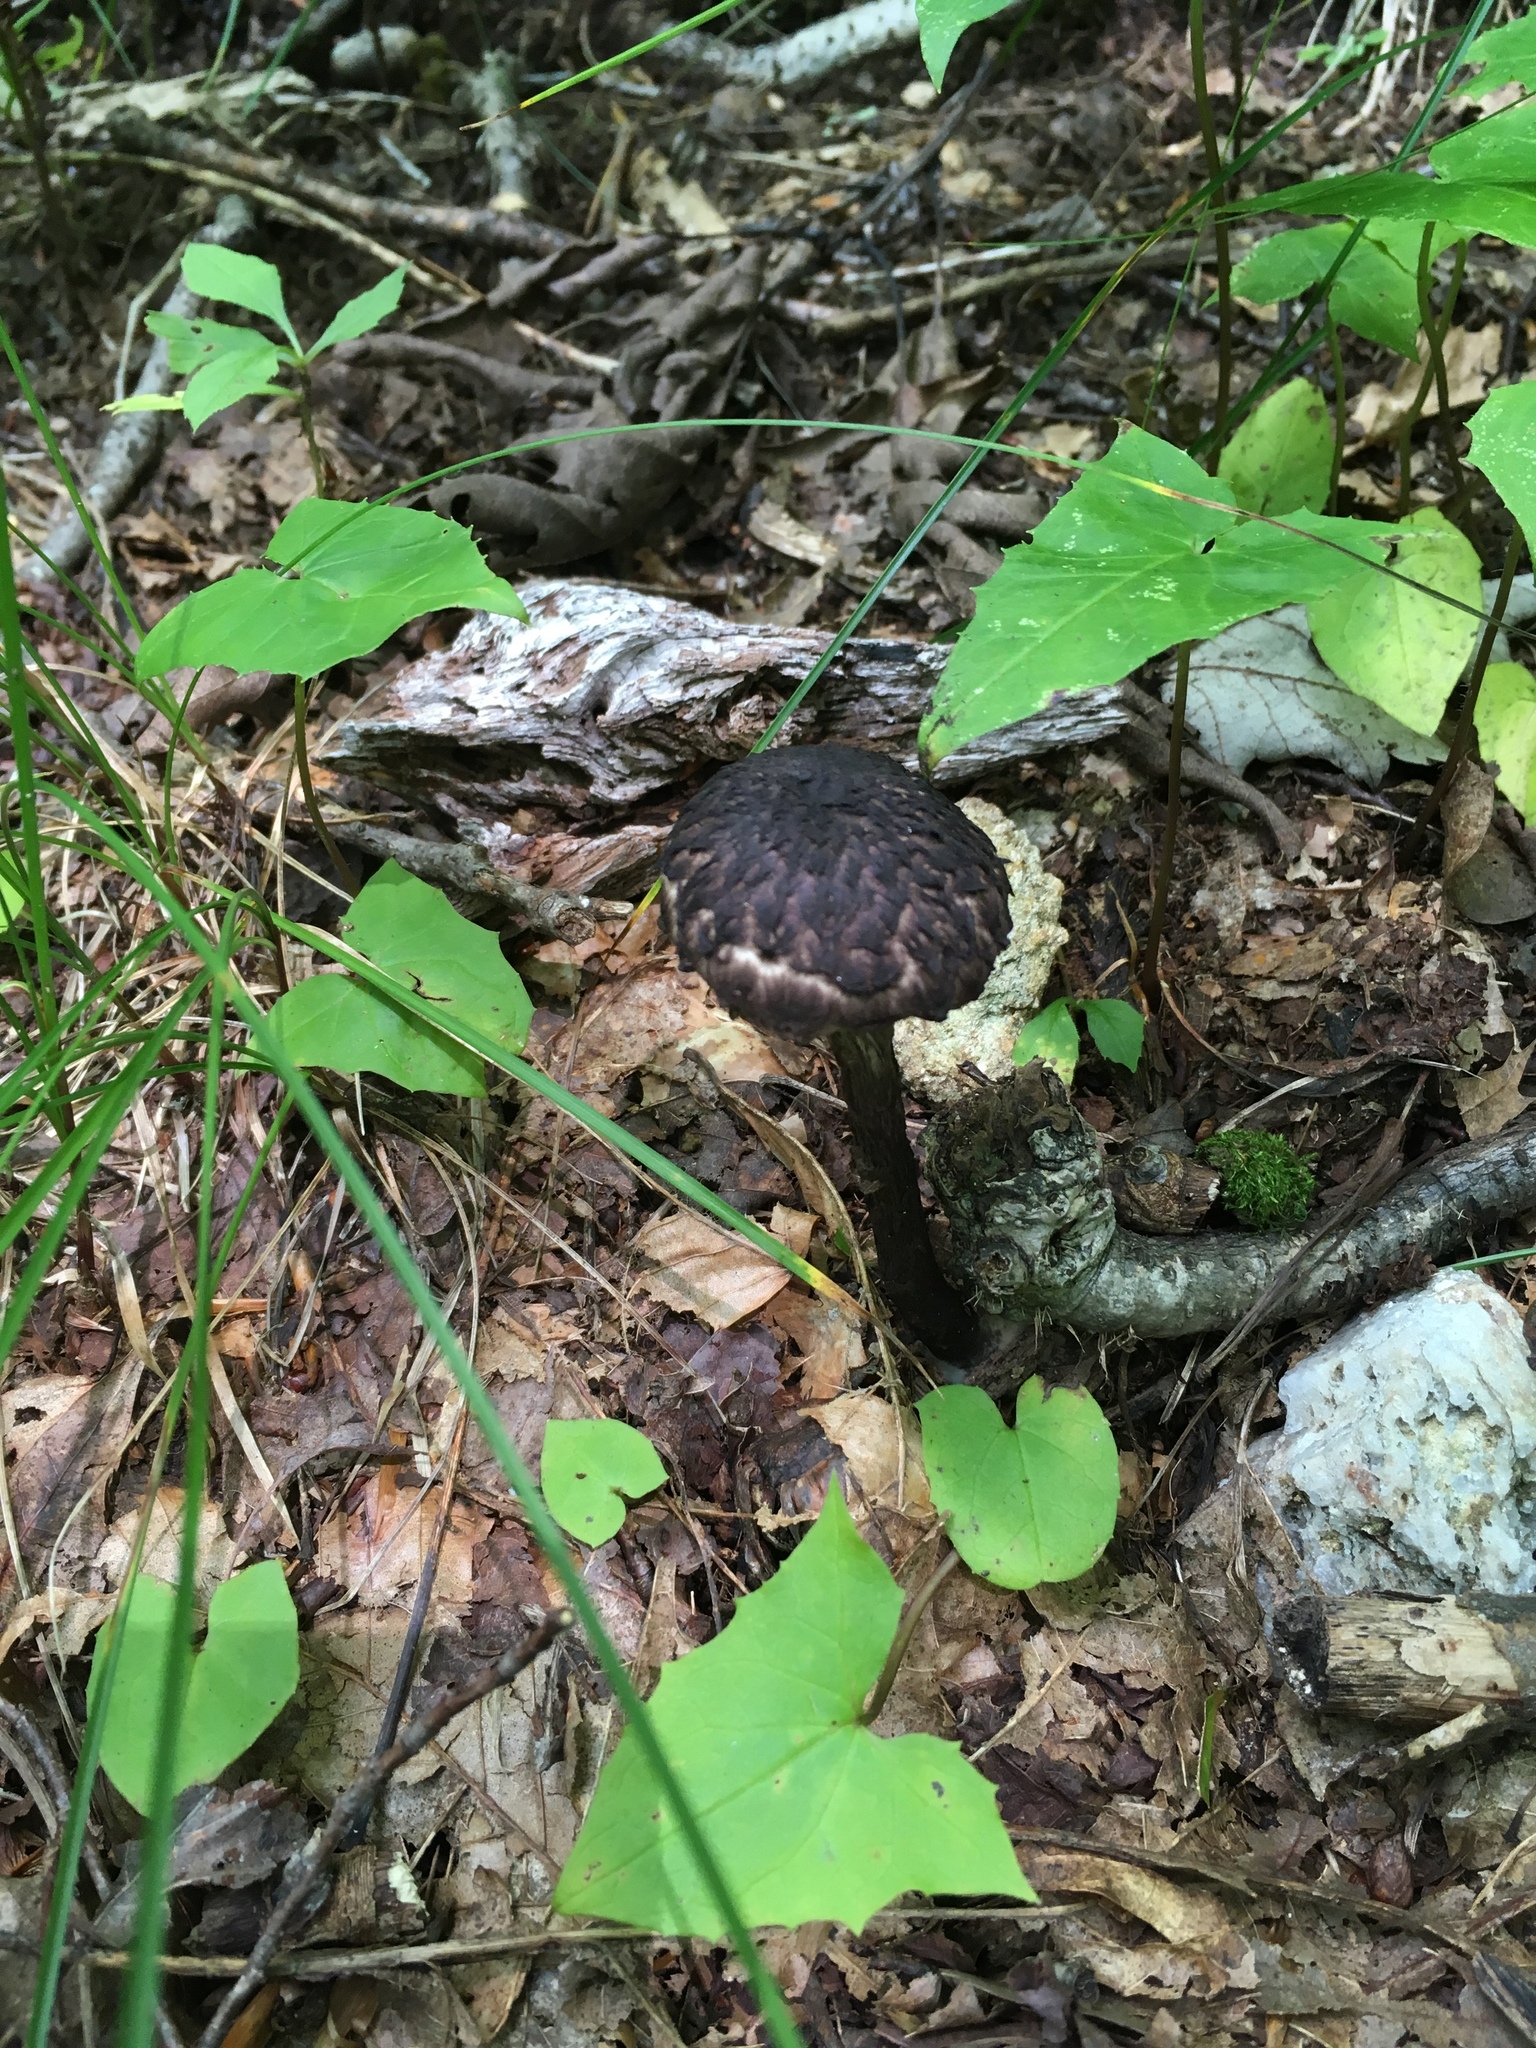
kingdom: Fungi
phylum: Basidiomycota
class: Agaricomycetes
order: Boletales
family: Boletaceae
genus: Strobilomyces
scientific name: Strobilomyces strobilaceus
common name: Old man of the woods
